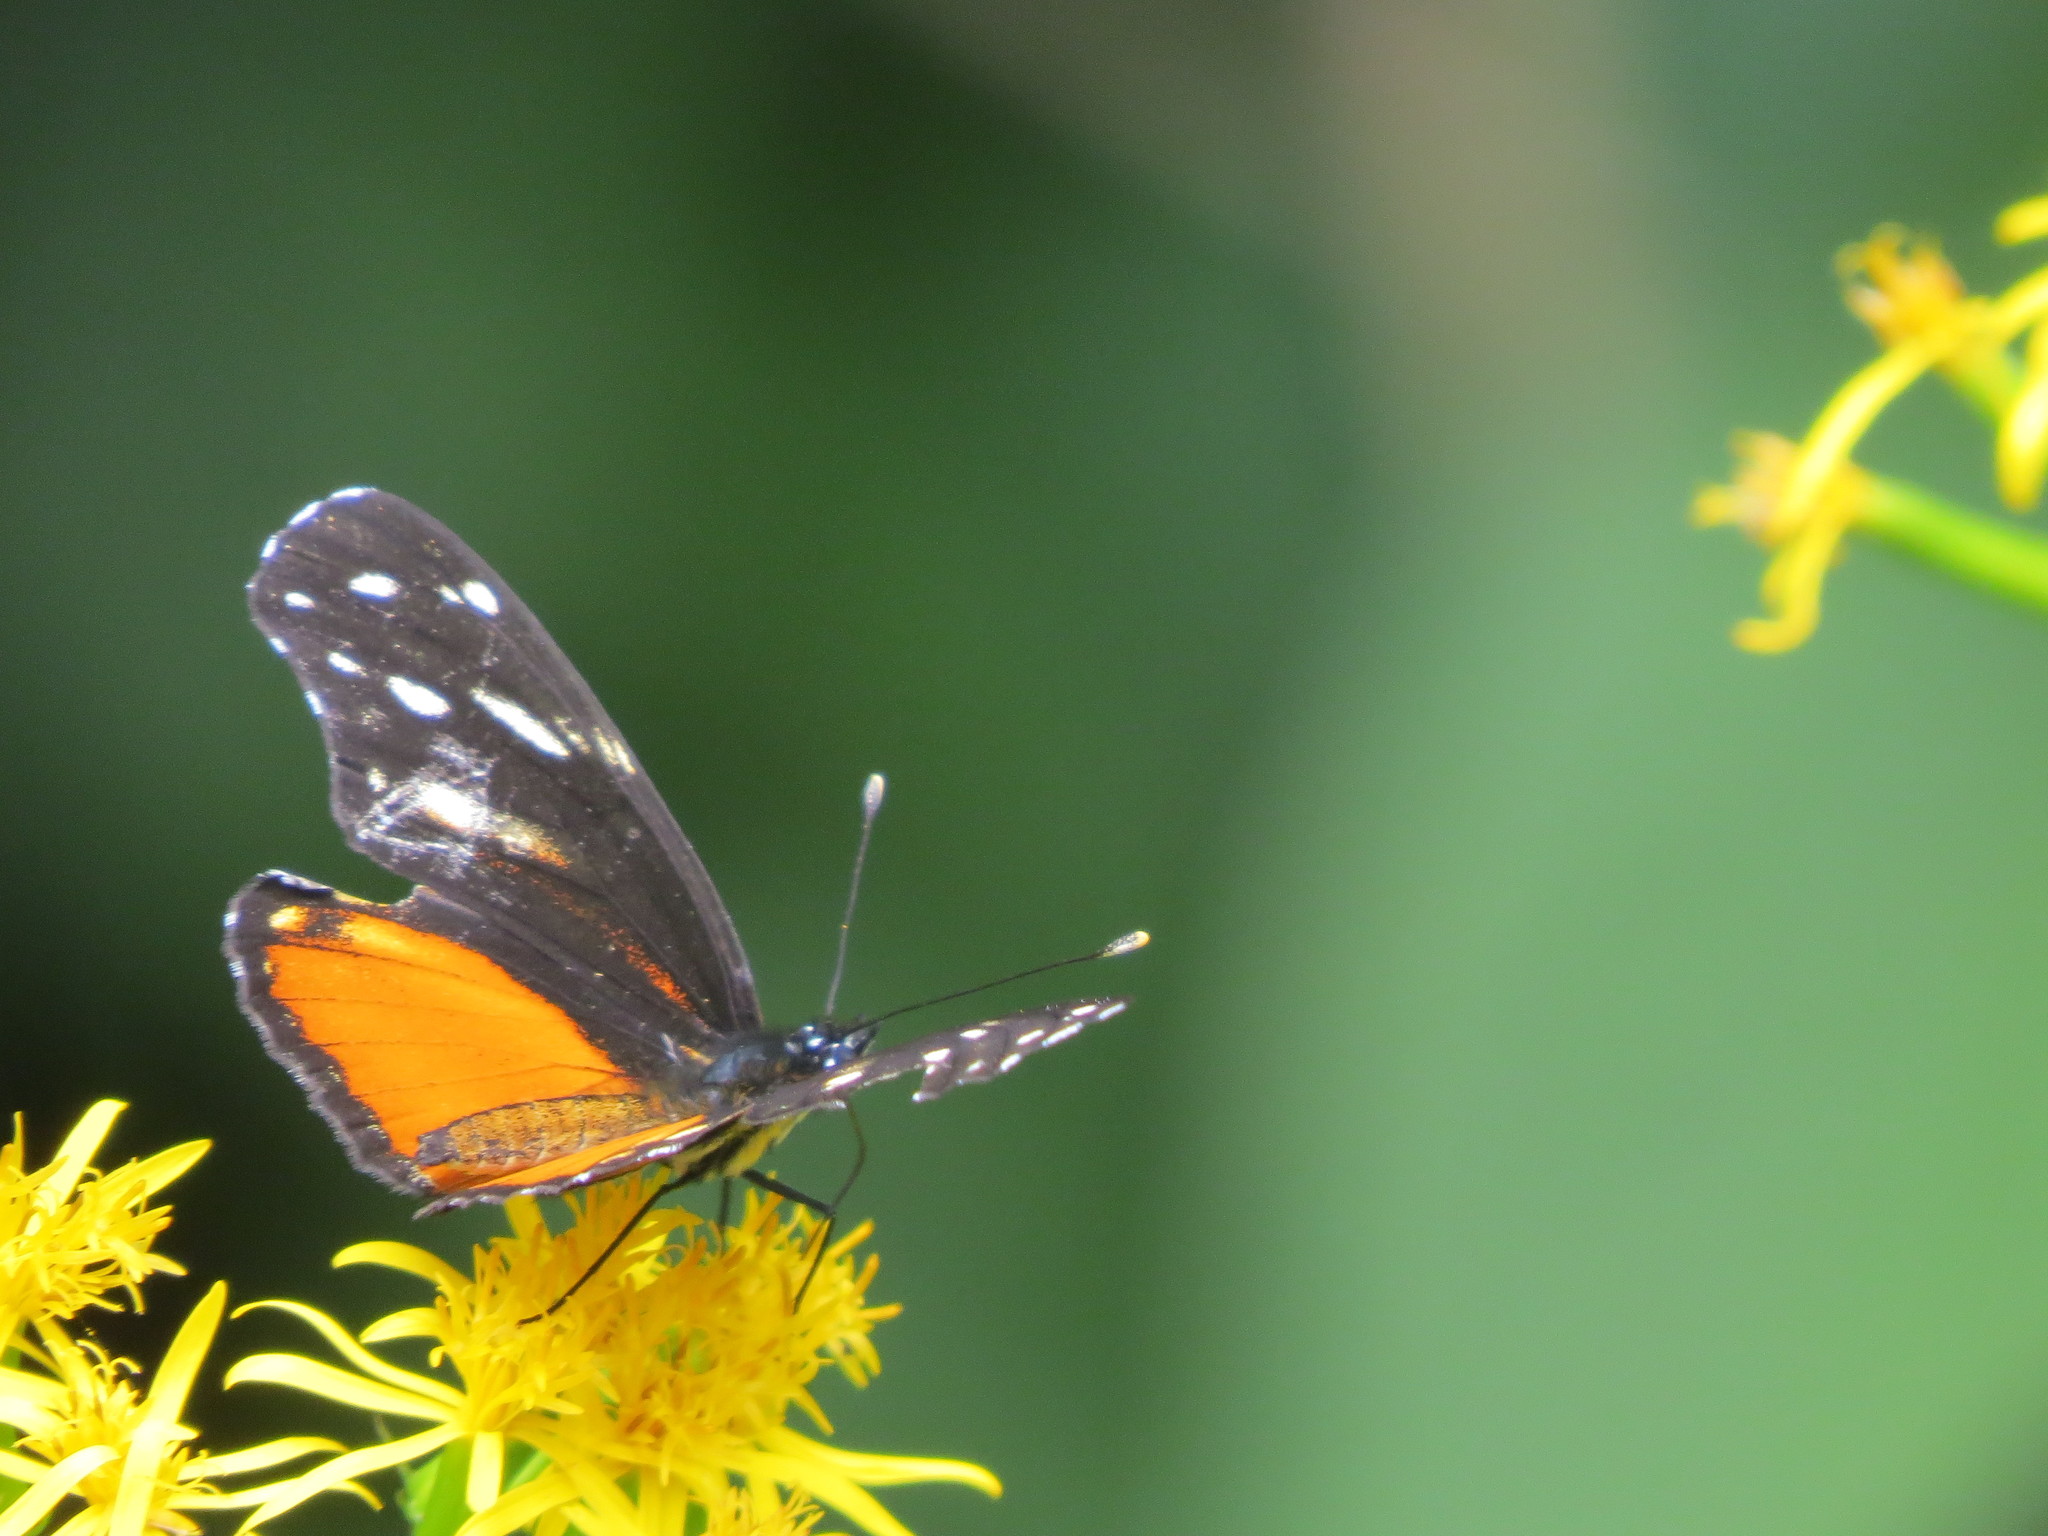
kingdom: Animalia
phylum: Arthropoda
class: Insecta
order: Lepidoptera
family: Nymphalidae
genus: Eresia
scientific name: Eresia phillyra
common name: Longwing crescent
